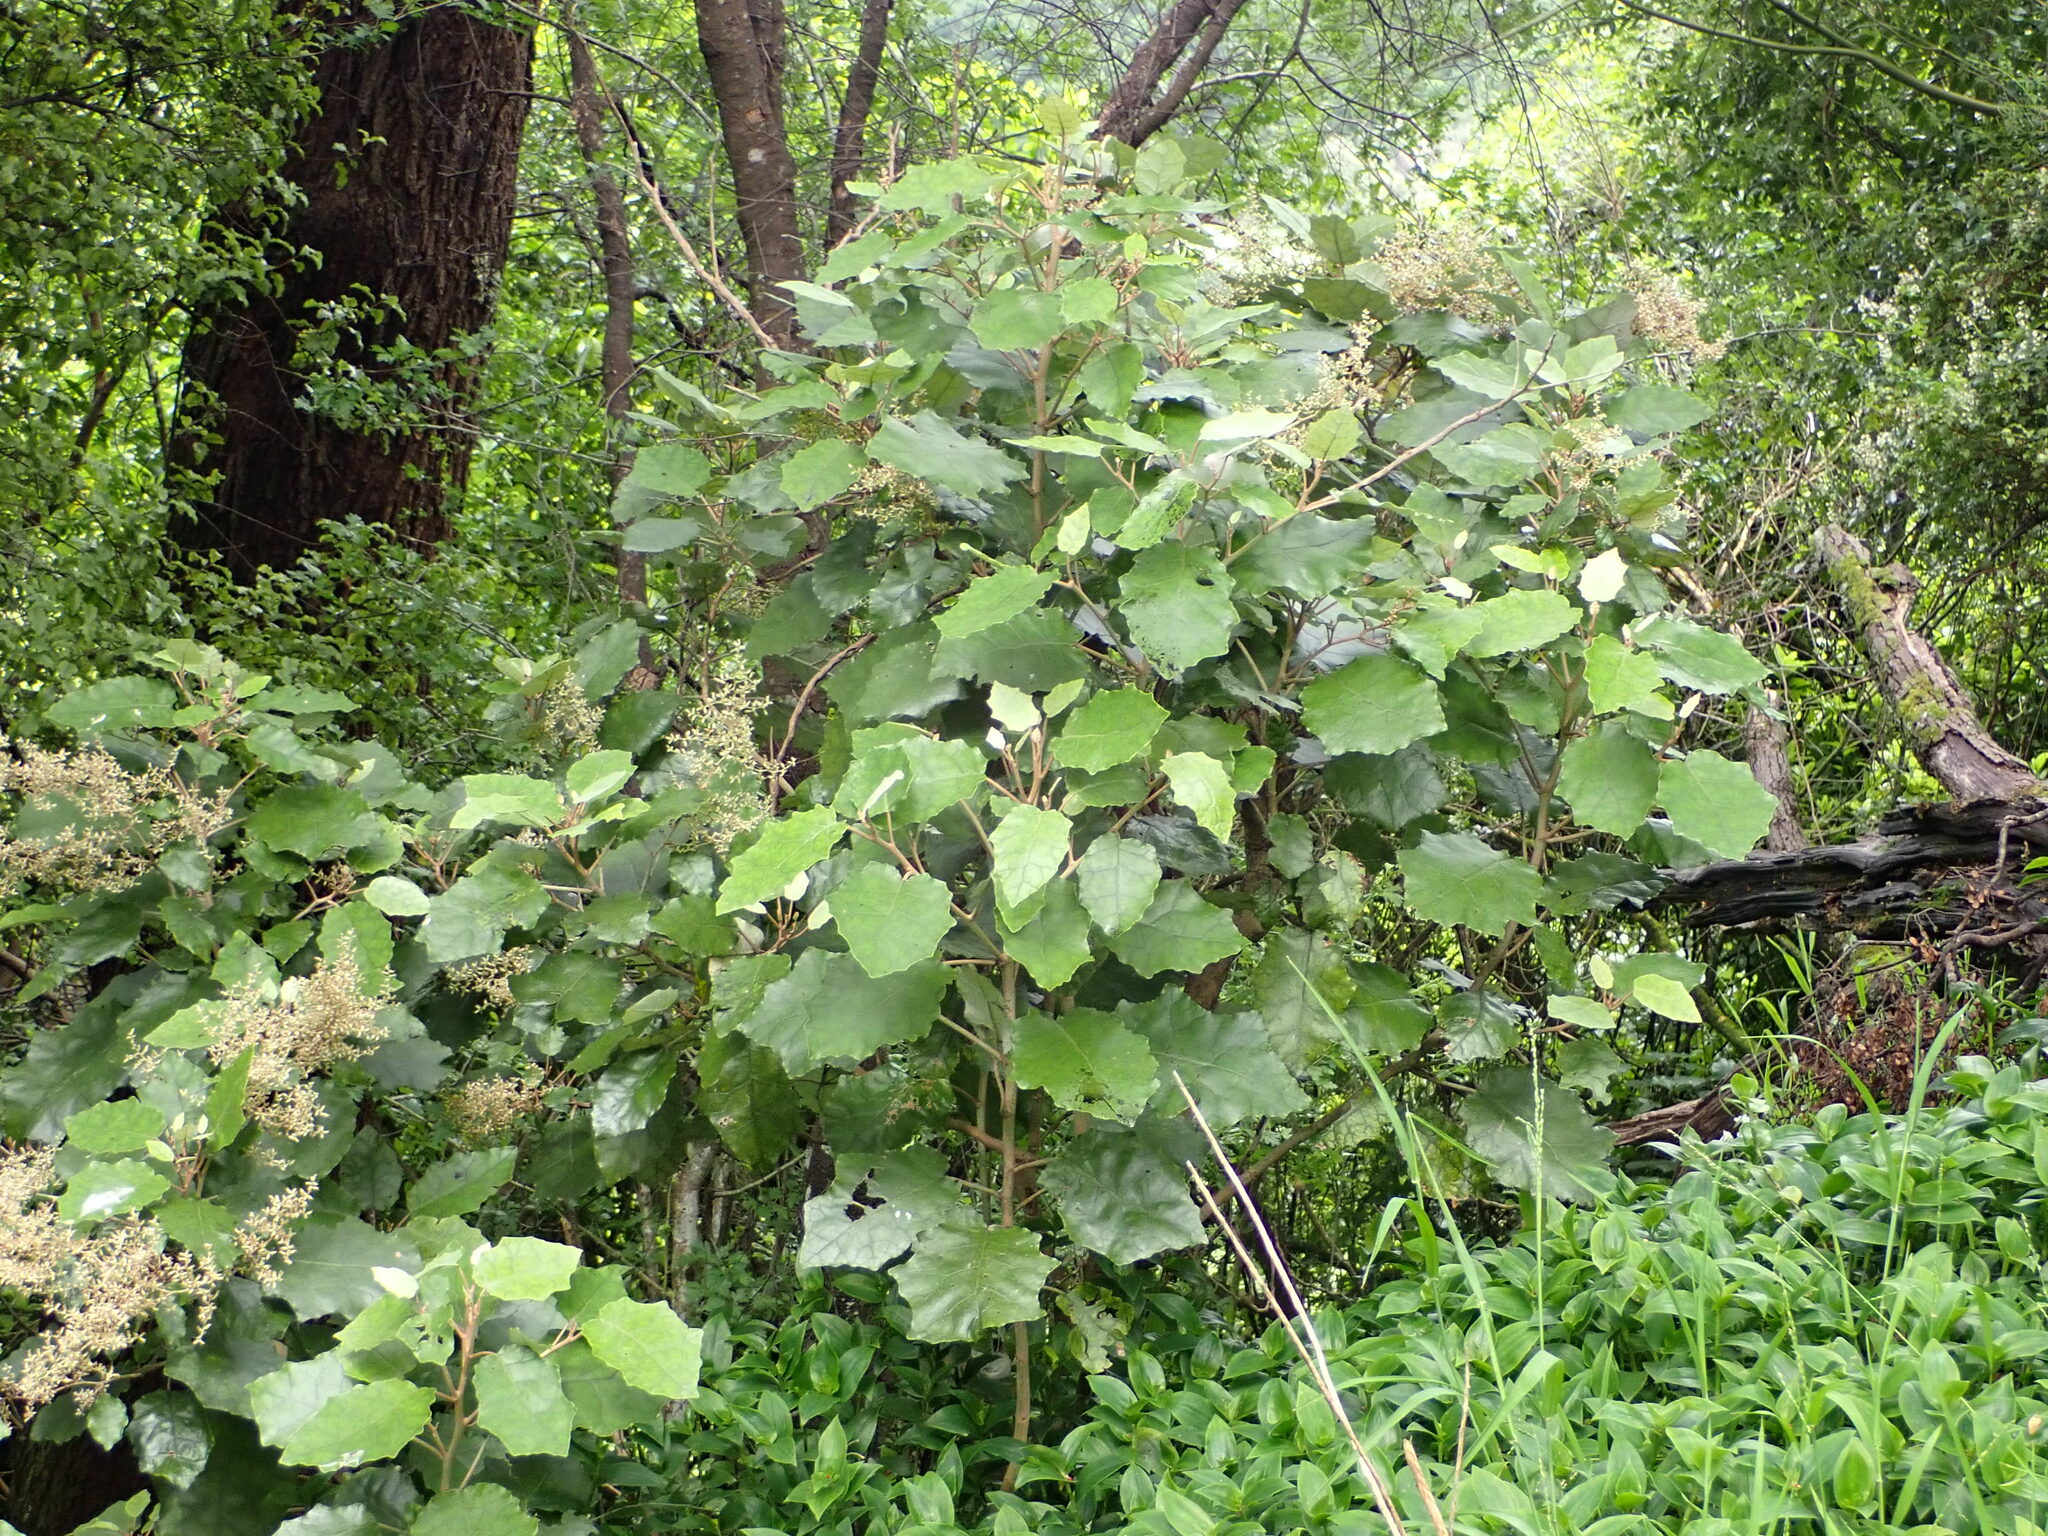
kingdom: Plantae
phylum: Tracheophyta
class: Magnoliopsida
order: Asterales
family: Asteraceae
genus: Brachyglottis
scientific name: Brachyglottis repanda
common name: Hedge ragwort
